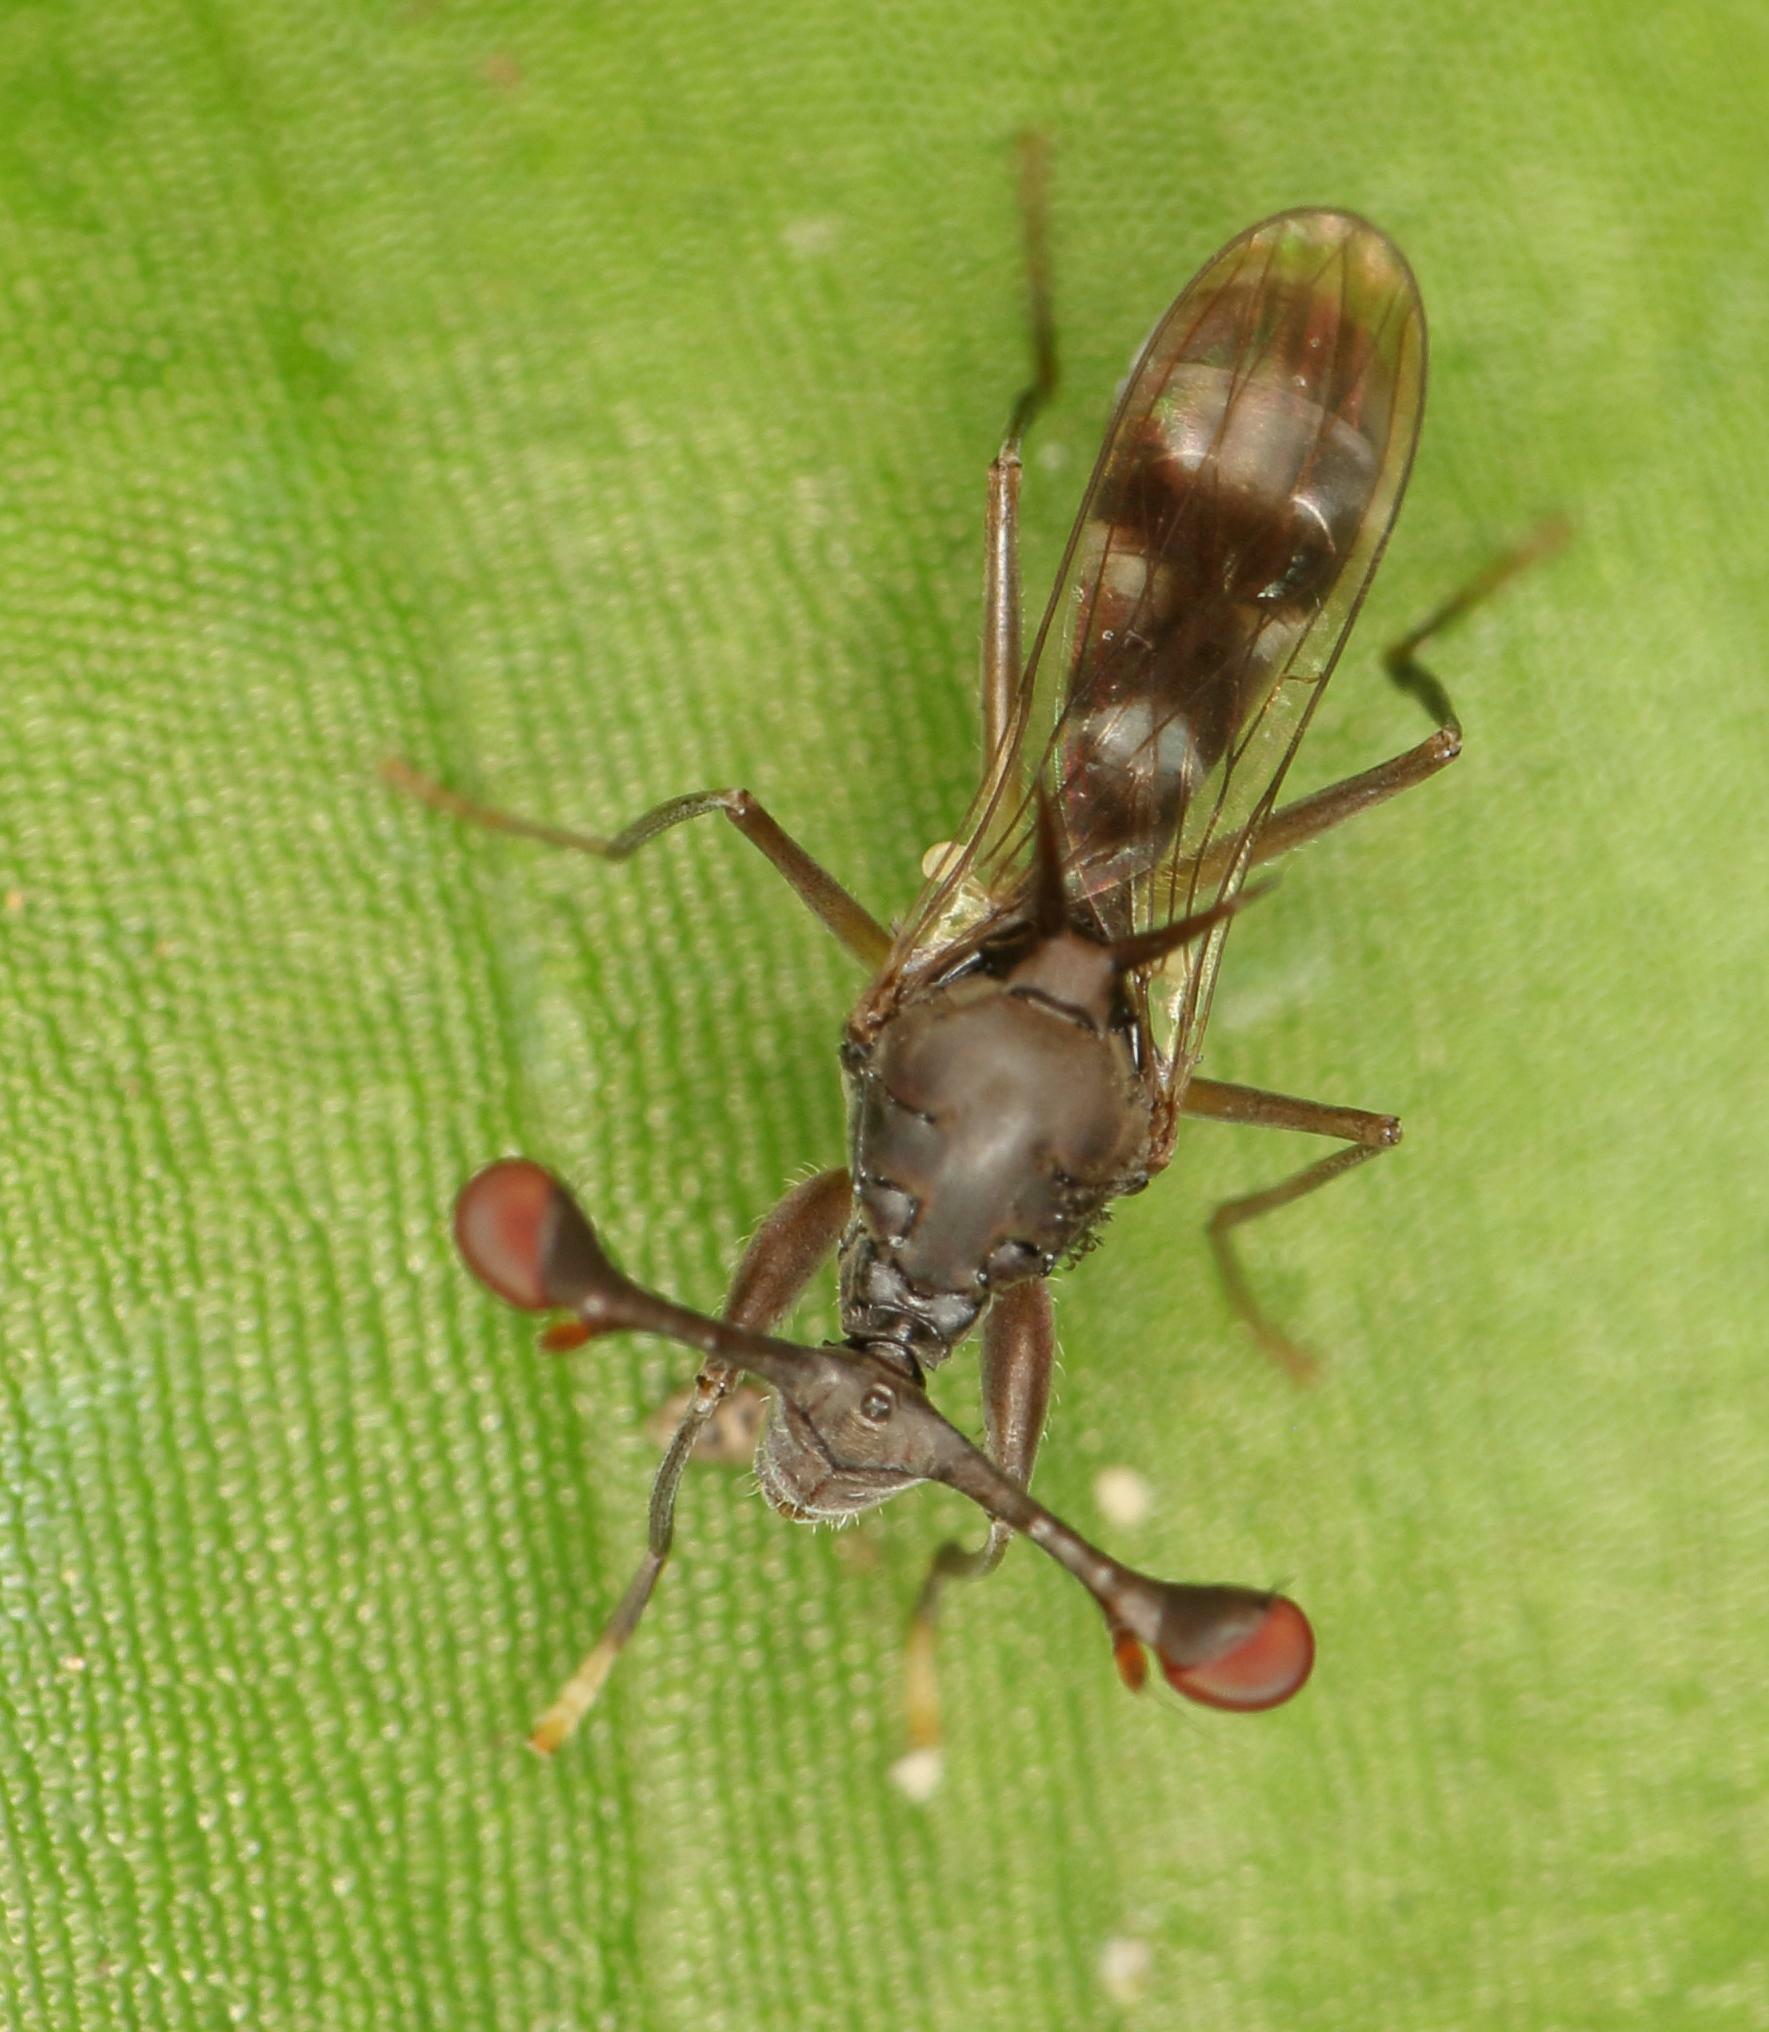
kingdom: Animalia
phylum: Arthropoda
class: Insecta
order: Diptera
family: Diopsidae
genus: Diasemopsis
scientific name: Diasemopsis obstans
